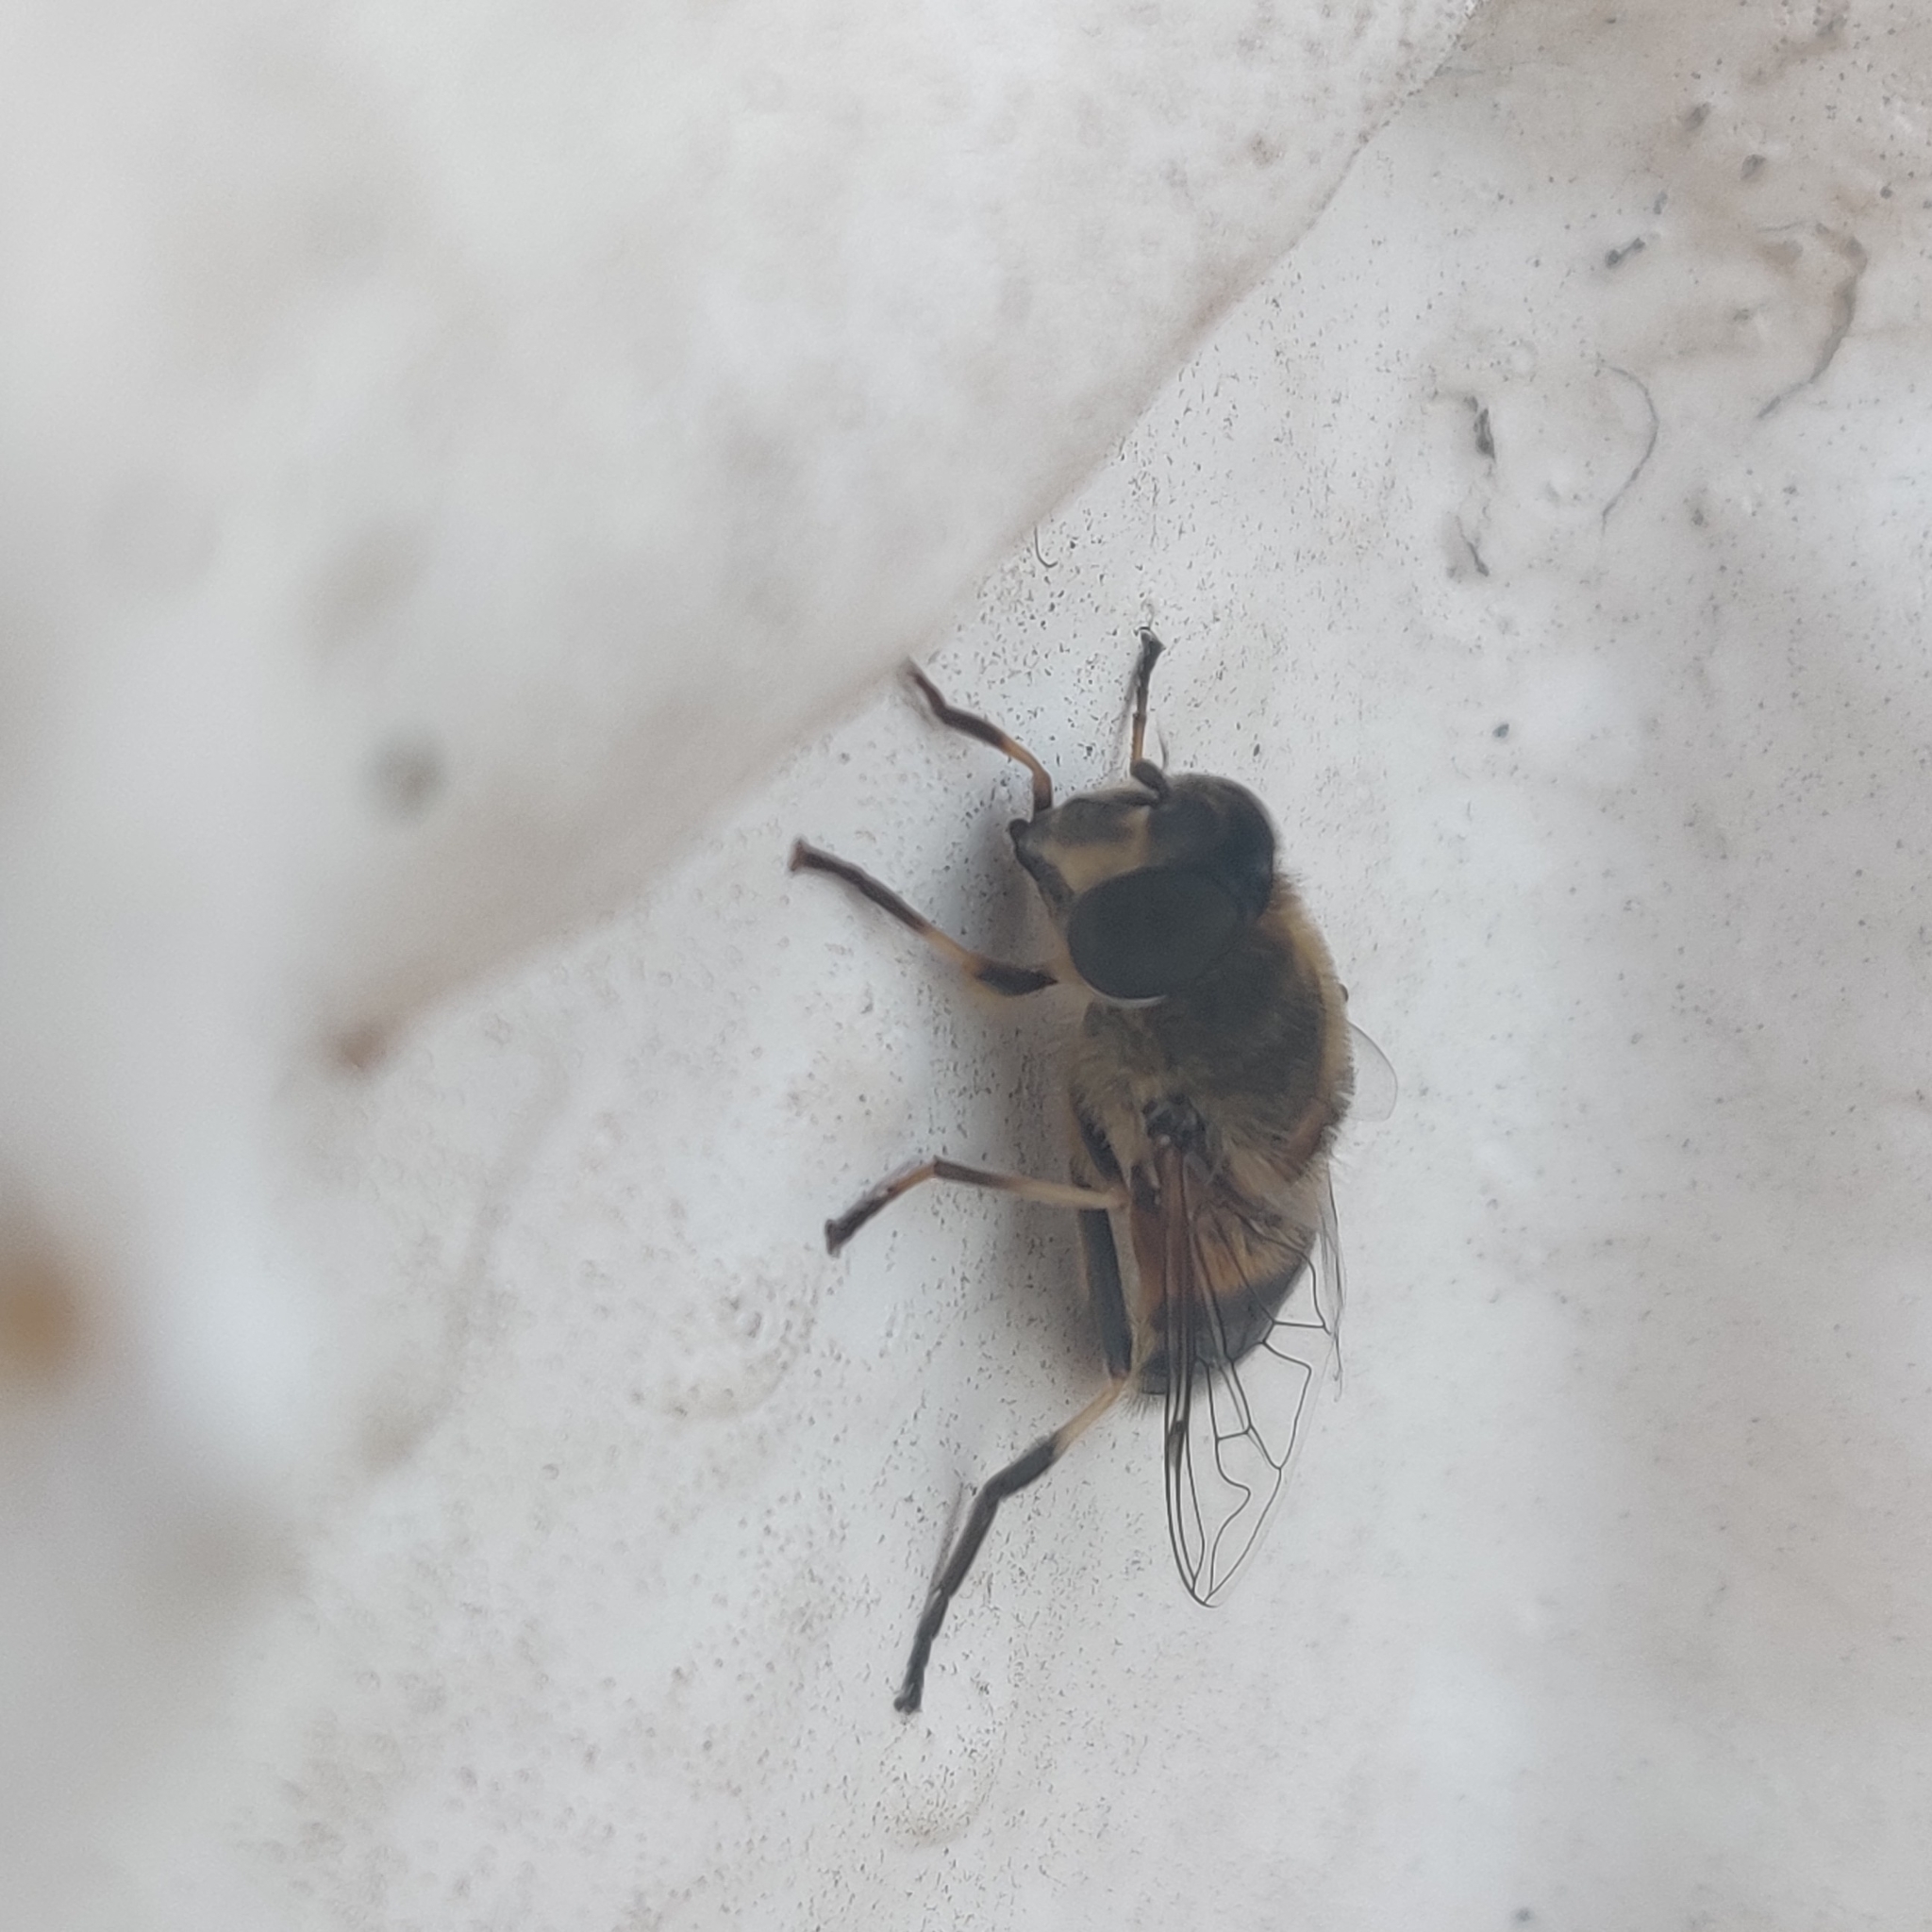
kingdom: Animalia
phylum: Arthropoda
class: Insecta
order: Diptera
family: Syrphidae
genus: Eristalis
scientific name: Eristalis pertinax
